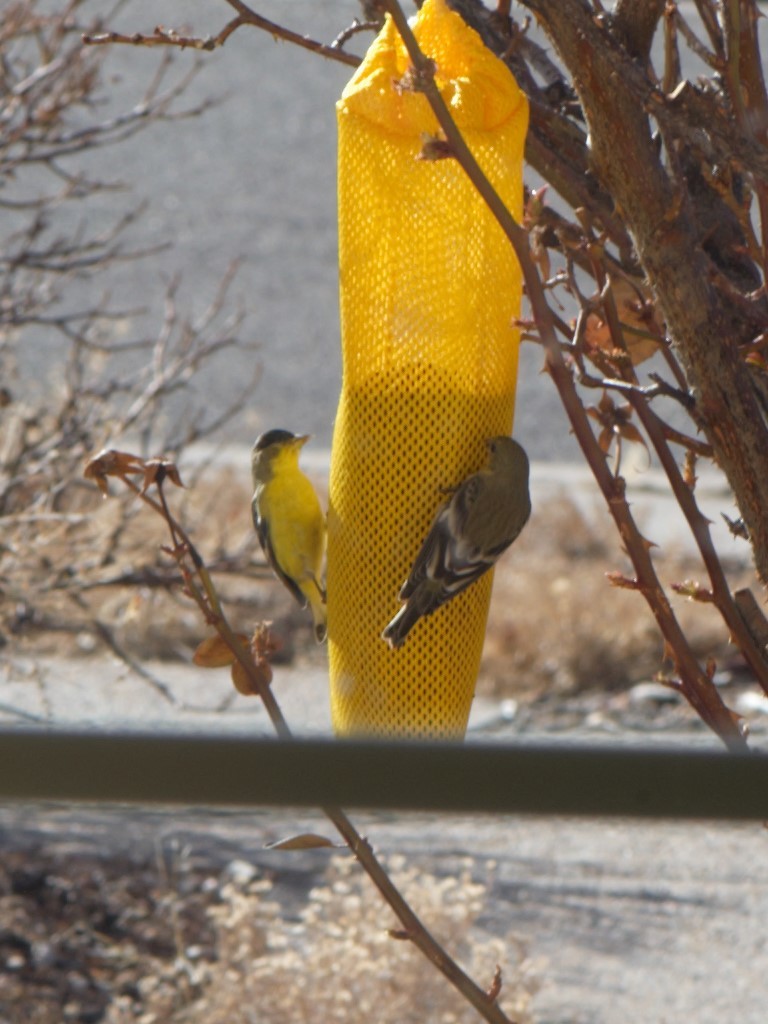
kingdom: Animalia
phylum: Chordata
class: Aves
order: Passeriformes
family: Fringillidae
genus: Spinus
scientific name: Spinus psaltria
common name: Lesser goldfinch
